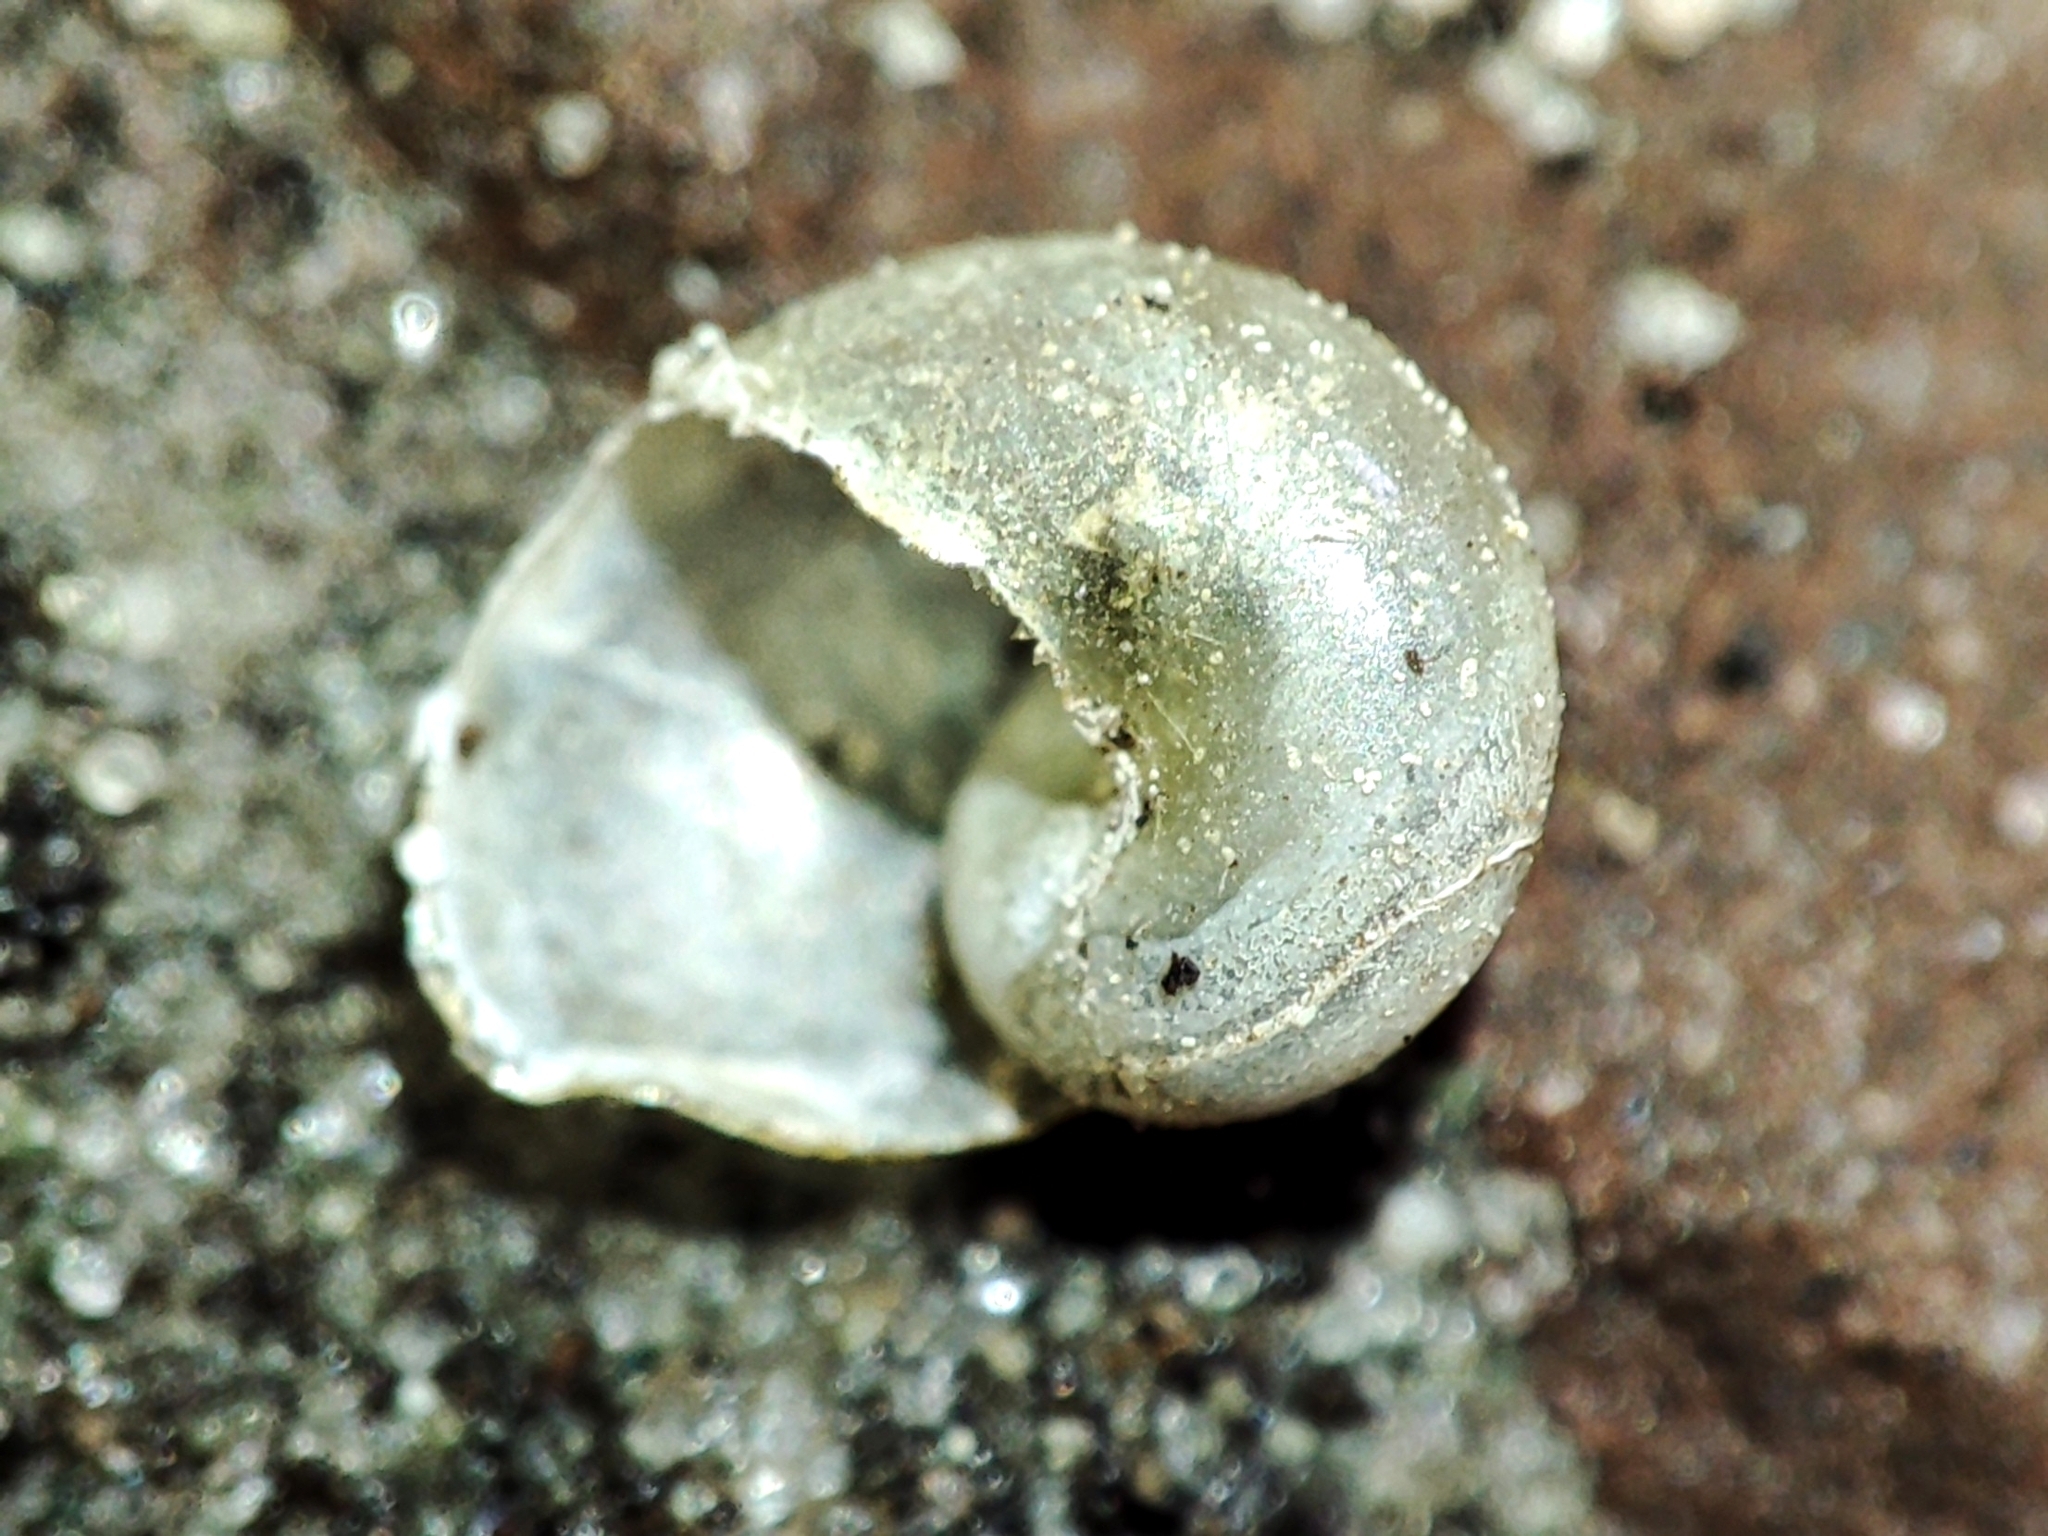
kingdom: Animalia
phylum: Mollusca
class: Gastropoda
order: Stylommatophora
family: Vitrinidae
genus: Vitrina
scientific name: Vitrina pellucida
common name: Pellucid glass snail
